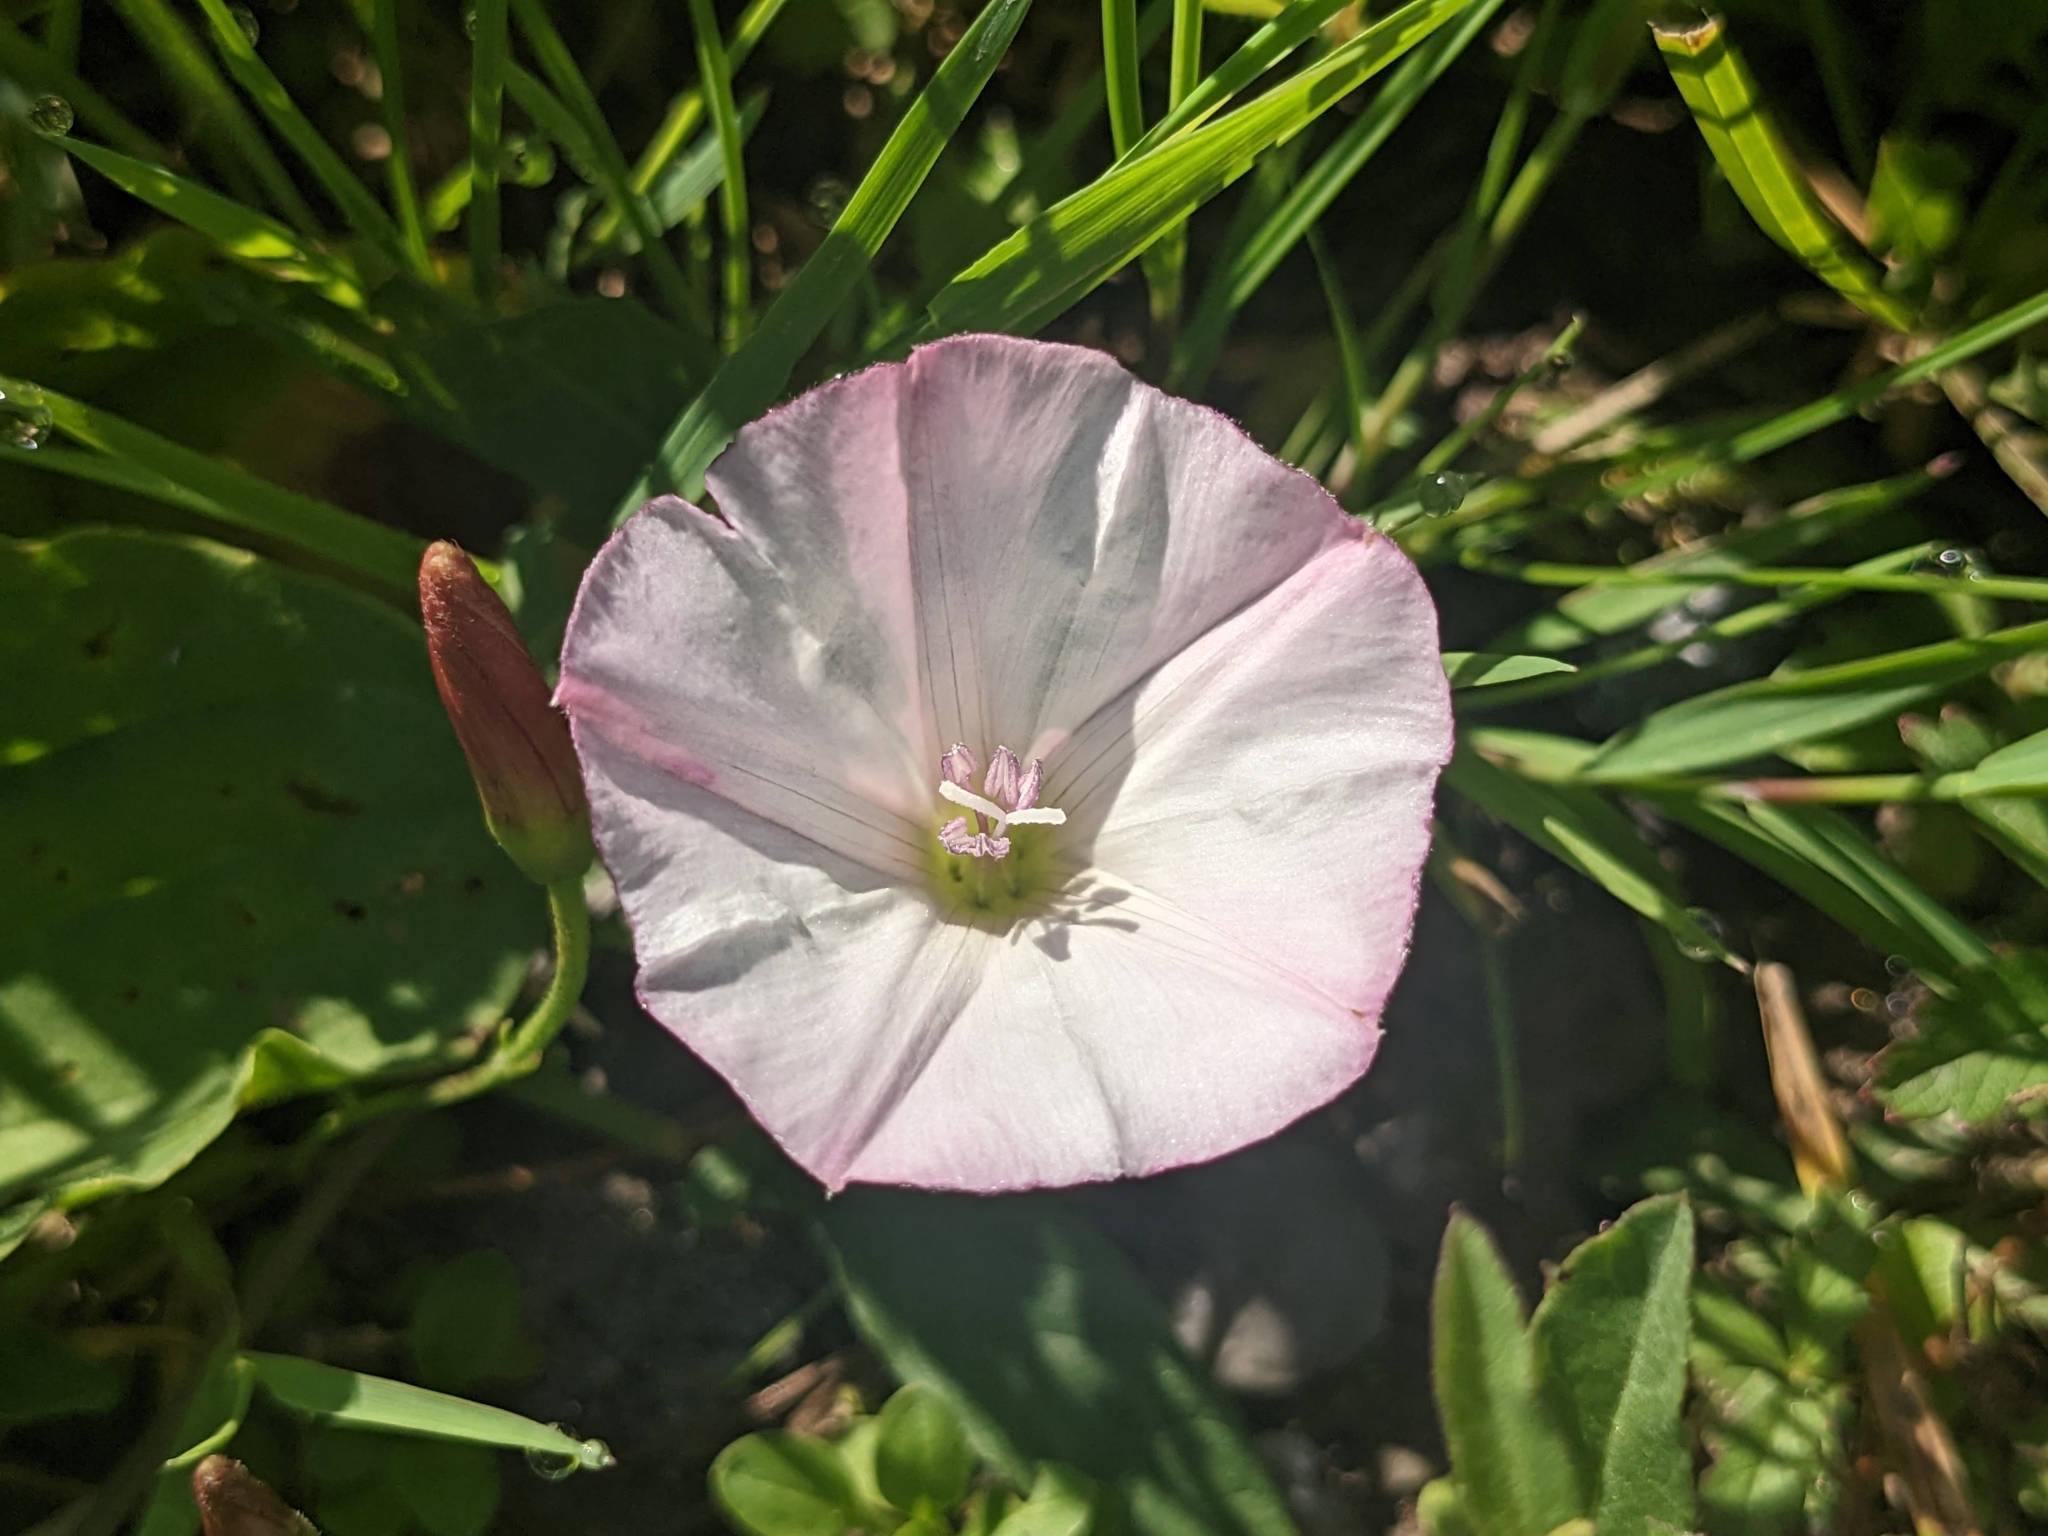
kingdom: Plantae
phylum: Tracheophyta
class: Magnoliopsida
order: Solanales
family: Convolvulaceae
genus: Convolvulus
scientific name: Convolvulus arvensis
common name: Field bindweed
